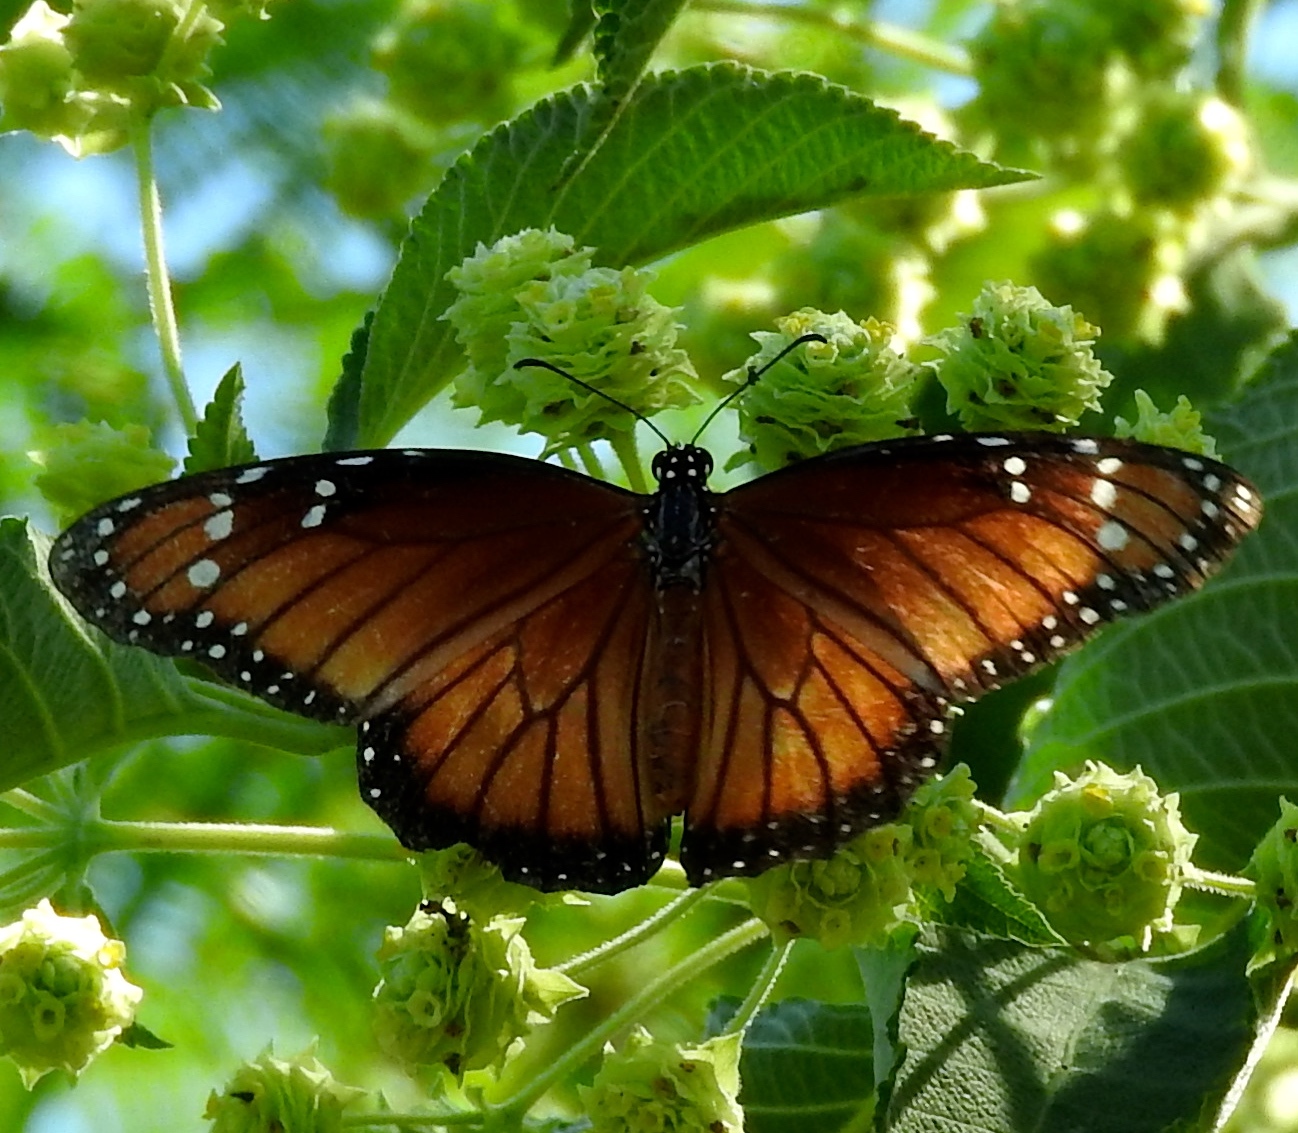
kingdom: Animalia
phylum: Arthropoda
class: Insecta
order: Lepidoptera
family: Nymphalidae
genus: Danaus
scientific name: Danaus eresimus
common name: Soldier
